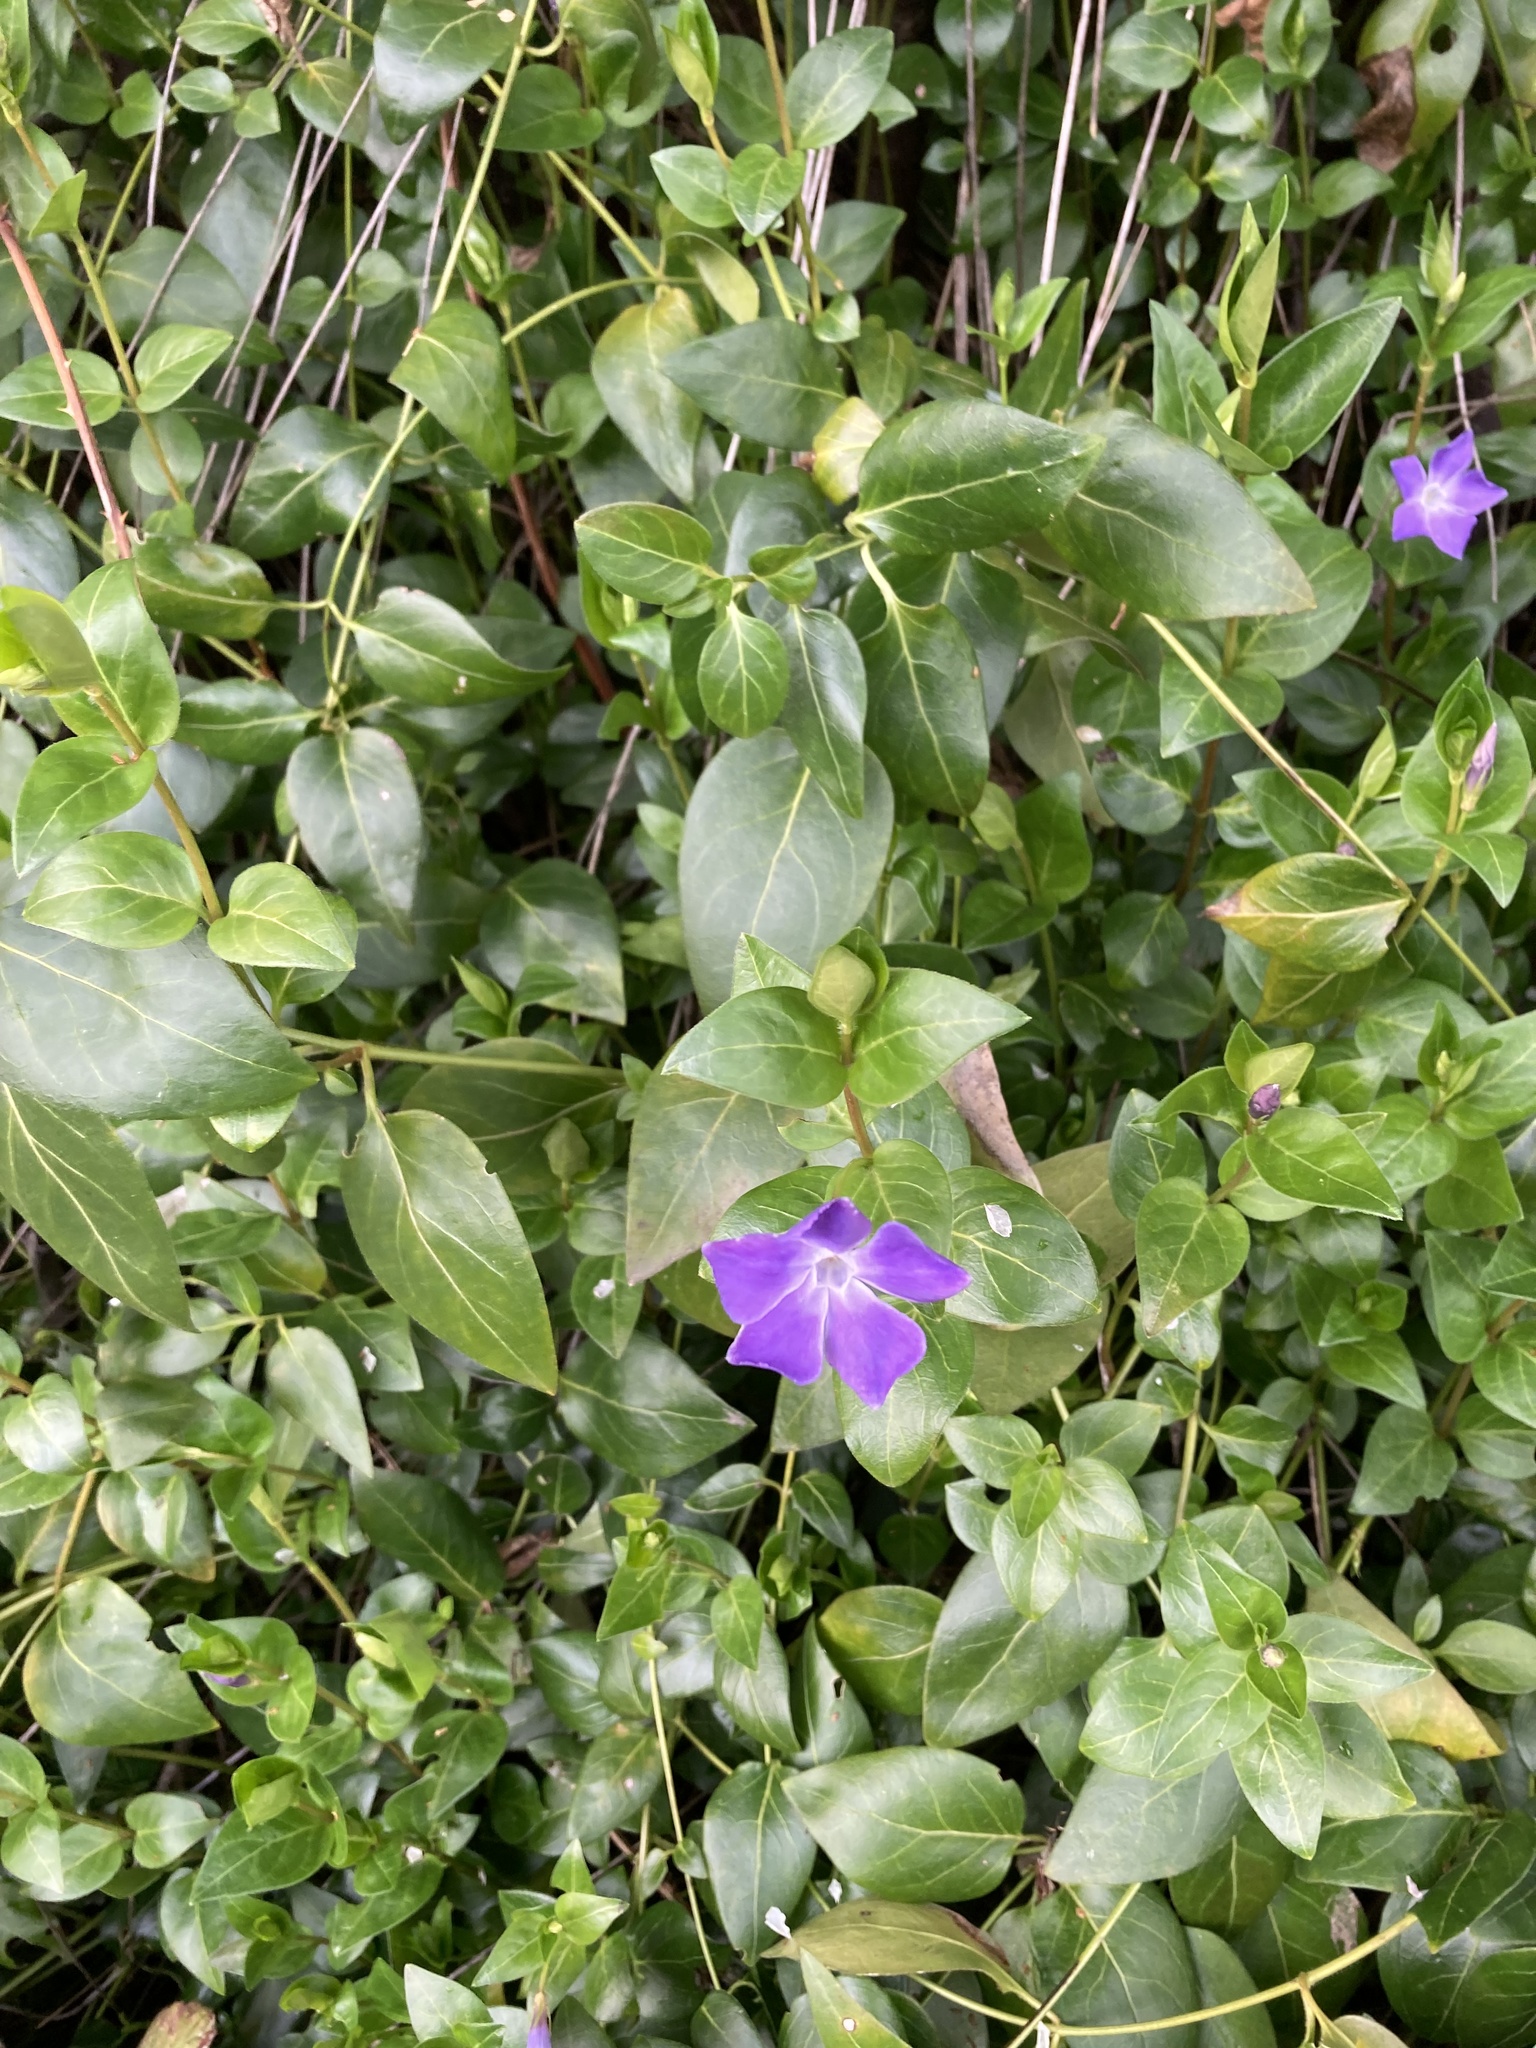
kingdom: Plantae
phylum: Tracheophyta
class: Magnoliopsida
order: Gentianales
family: Apocynaceae
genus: Vinca
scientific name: Vinca major
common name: Greater periwinkle
